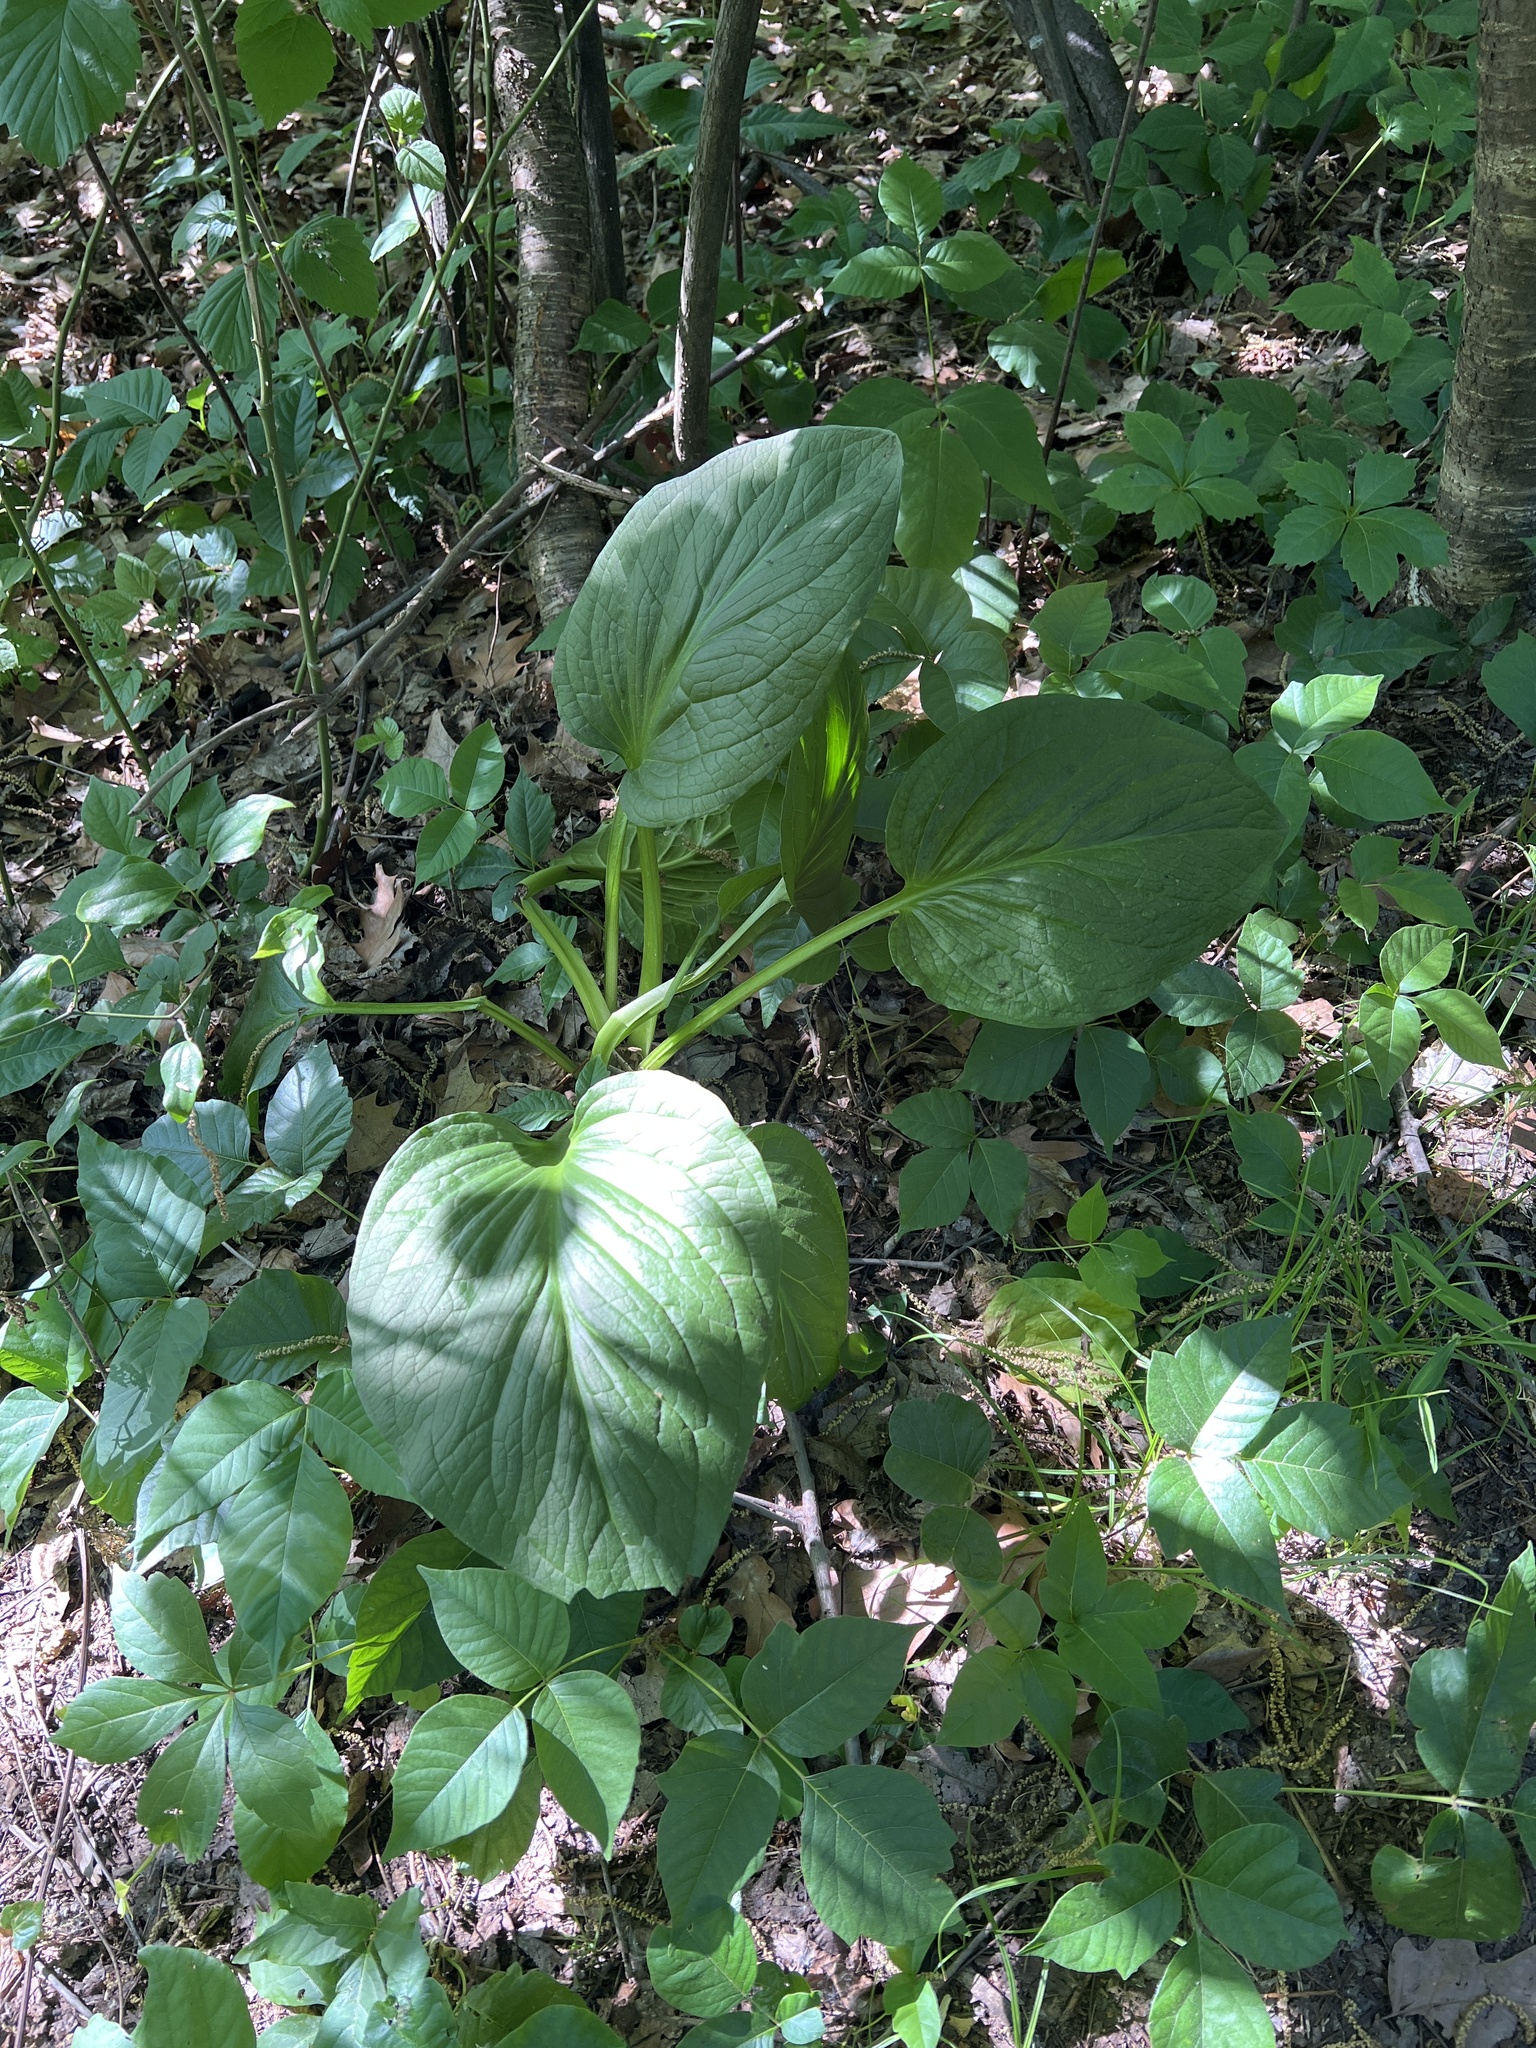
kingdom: Plantae
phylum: Tracheophyta
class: Liliopsida
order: Alismatales
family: Araceae
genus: Symplocarpus
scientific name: Symplocarpus foetidus
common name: Eastern skunk cabbage
